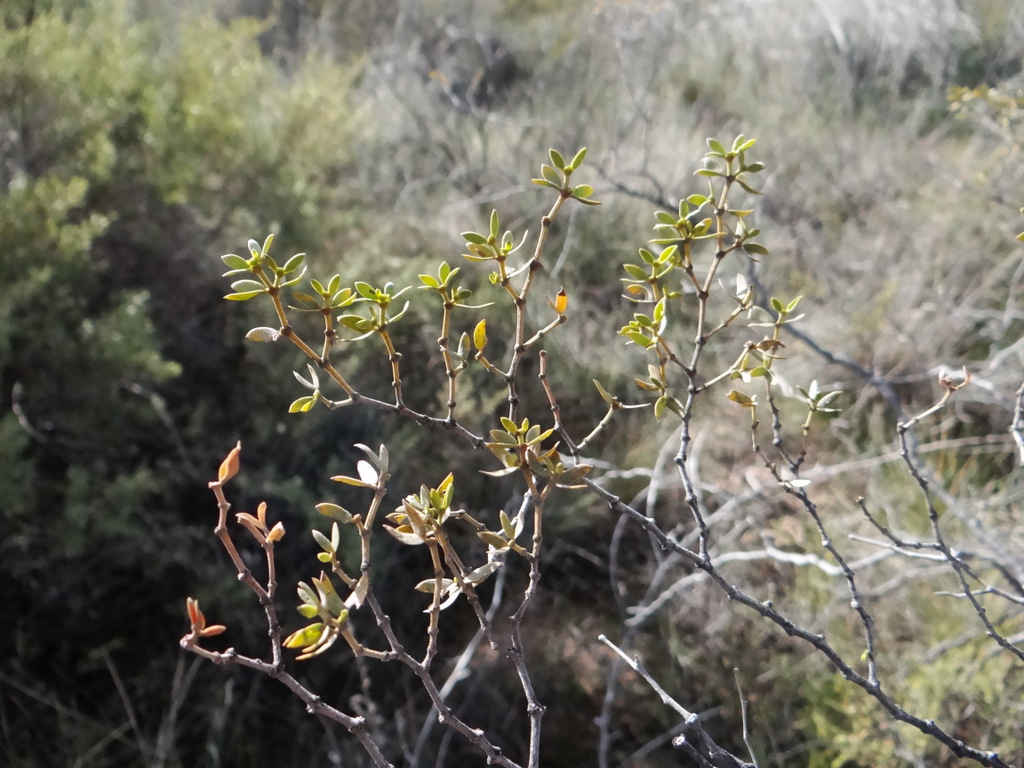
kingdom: Plantae
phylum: Tracheophyta
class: Magnoliopsida
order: Zygophyllales
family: Zygophyllaceae
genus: Larrea
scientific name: Larrea divaricata
